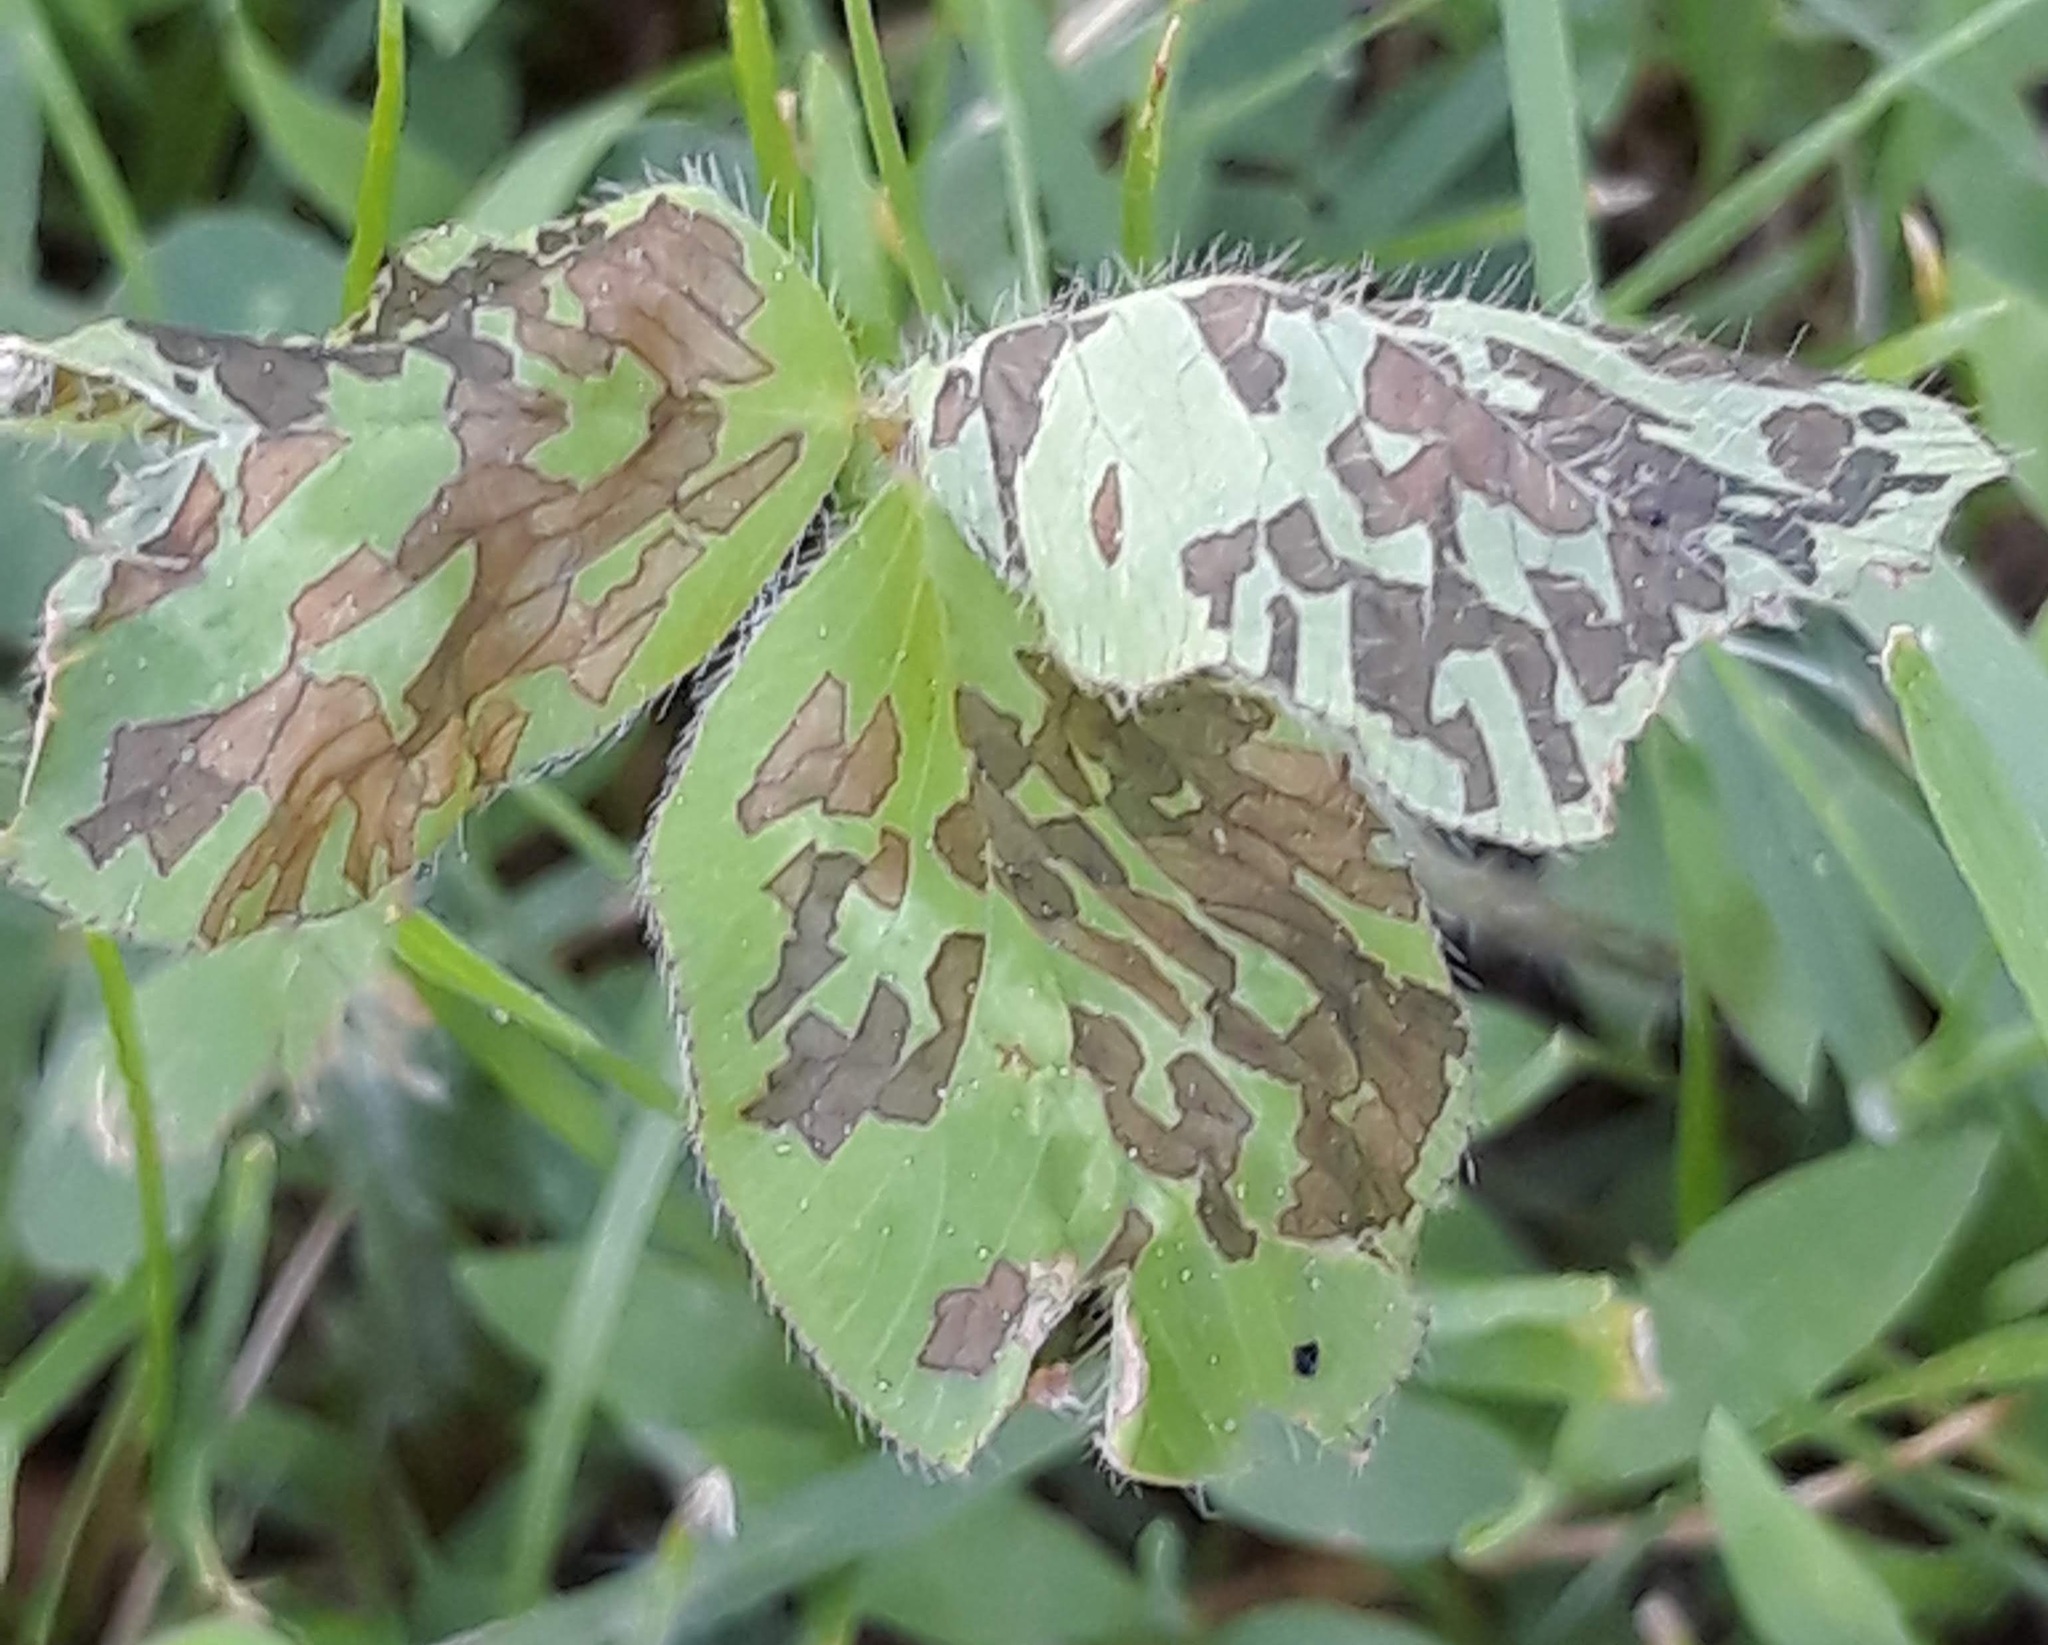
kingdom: Animalia
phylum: Arthropoda
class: Insecta
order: Hemiptera
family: Miridae
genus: Poecilocapsus
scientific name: Poecilocapsus lineatus
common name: Four-lined plant bug
